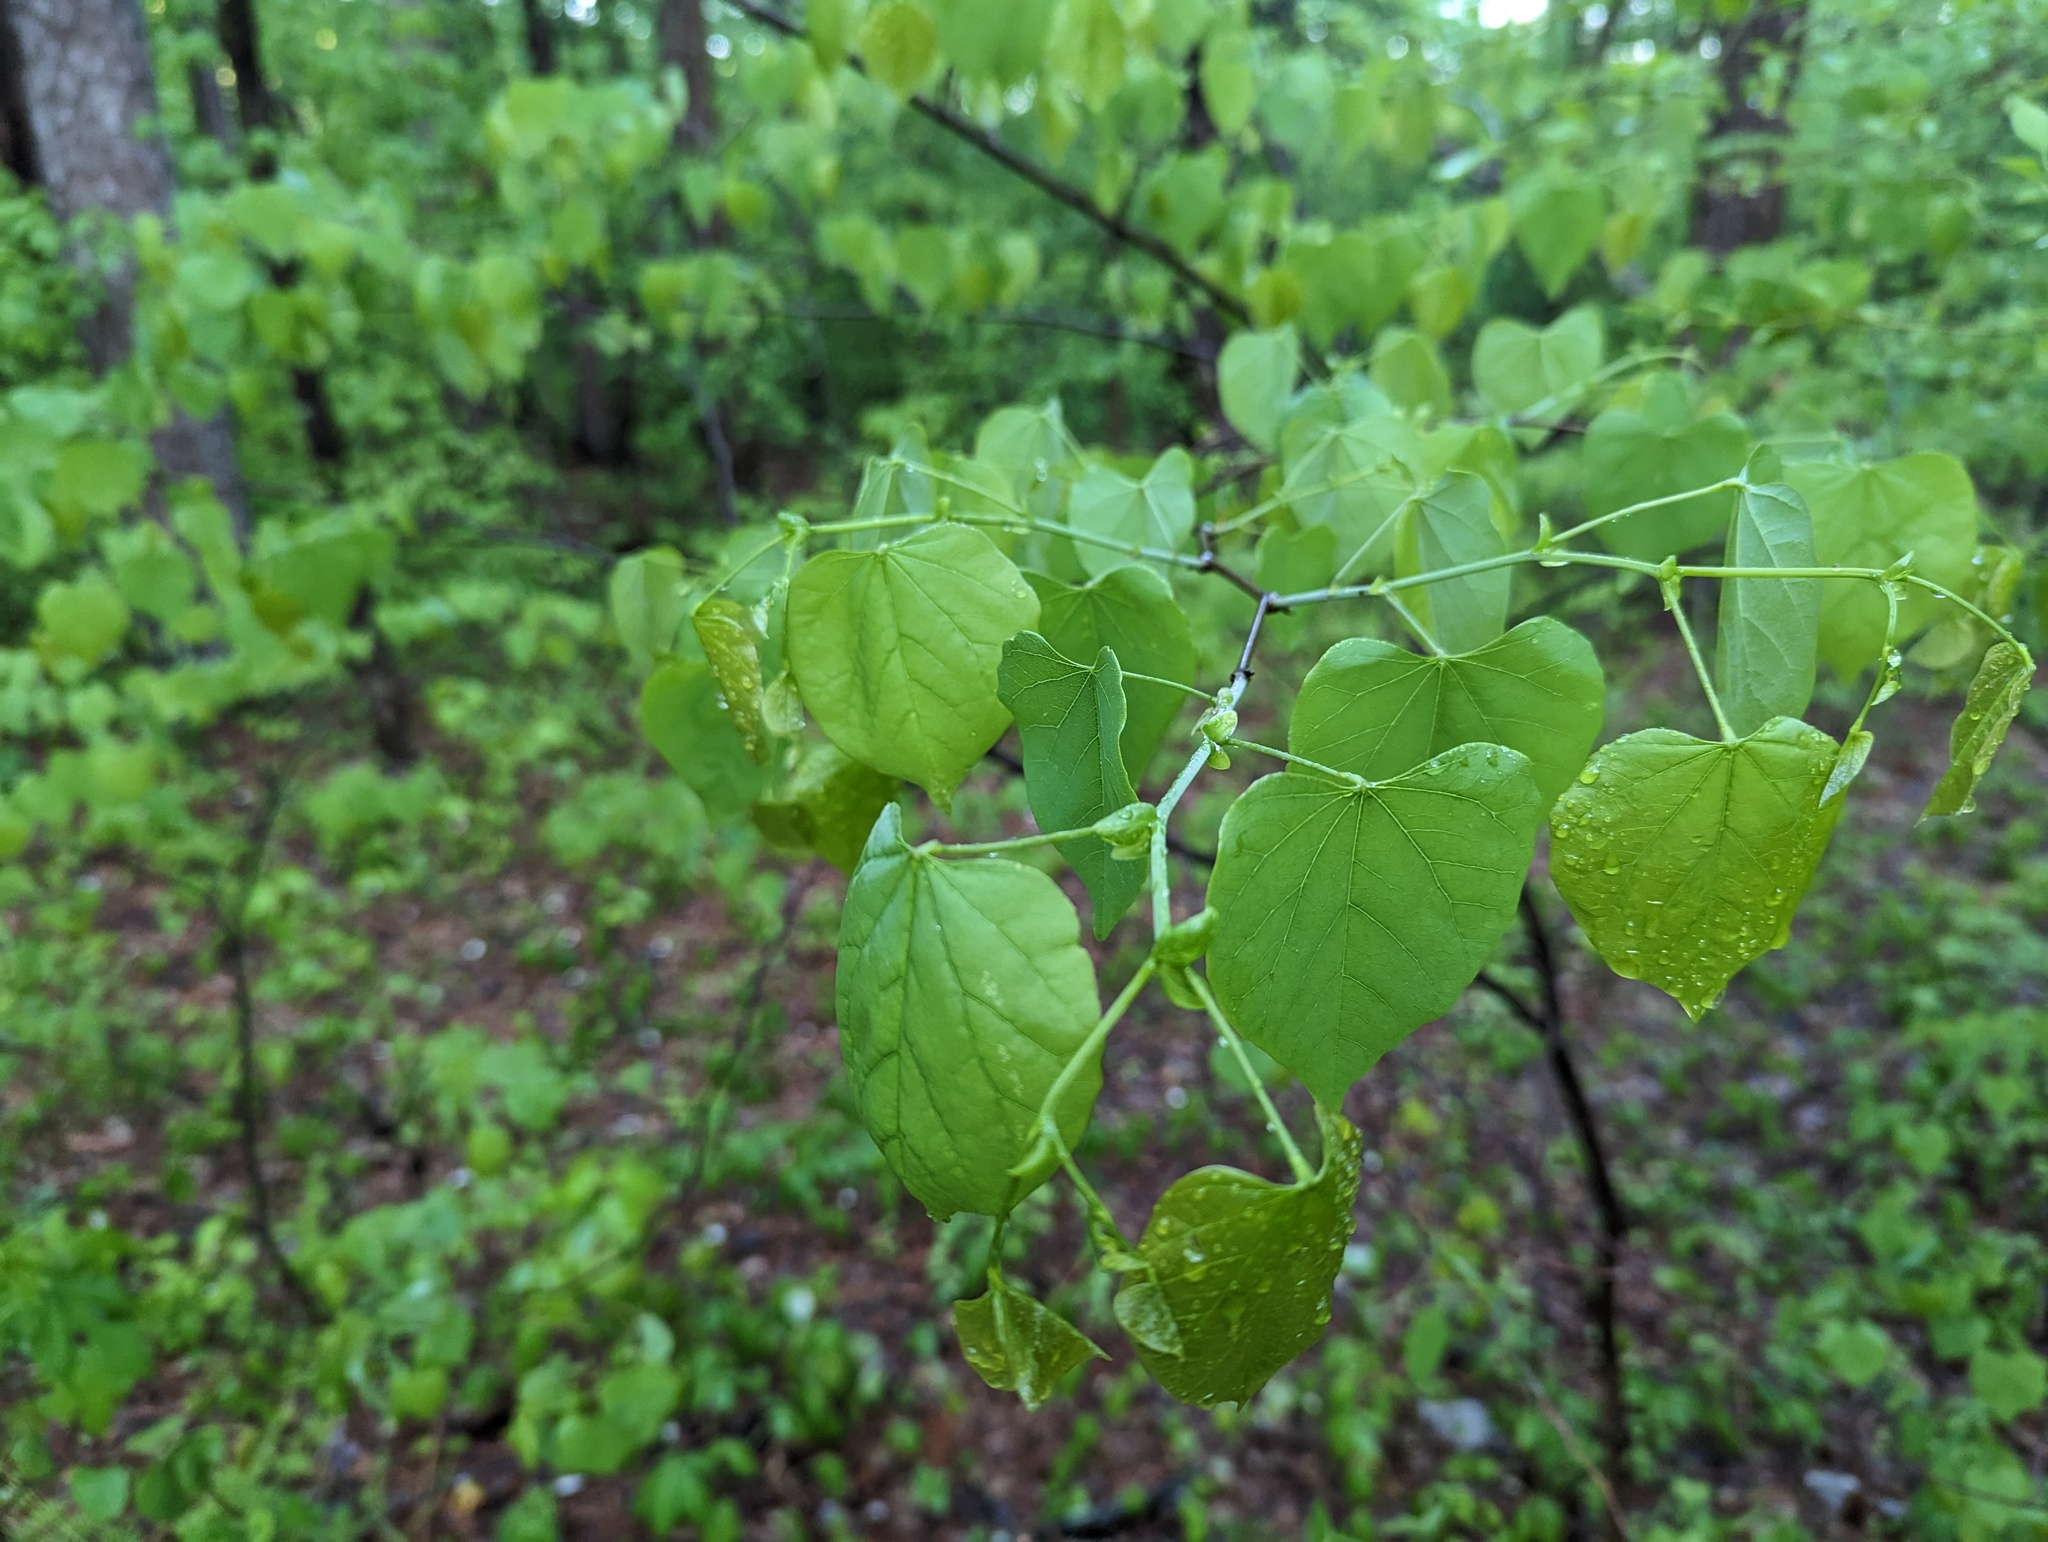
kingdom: Plantae
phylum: Tracheophyta
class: Magnoliopsida
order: Fabales
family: Fabaceae
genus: Cercis
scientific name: Cercis canadensis
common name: Eastern redbud
